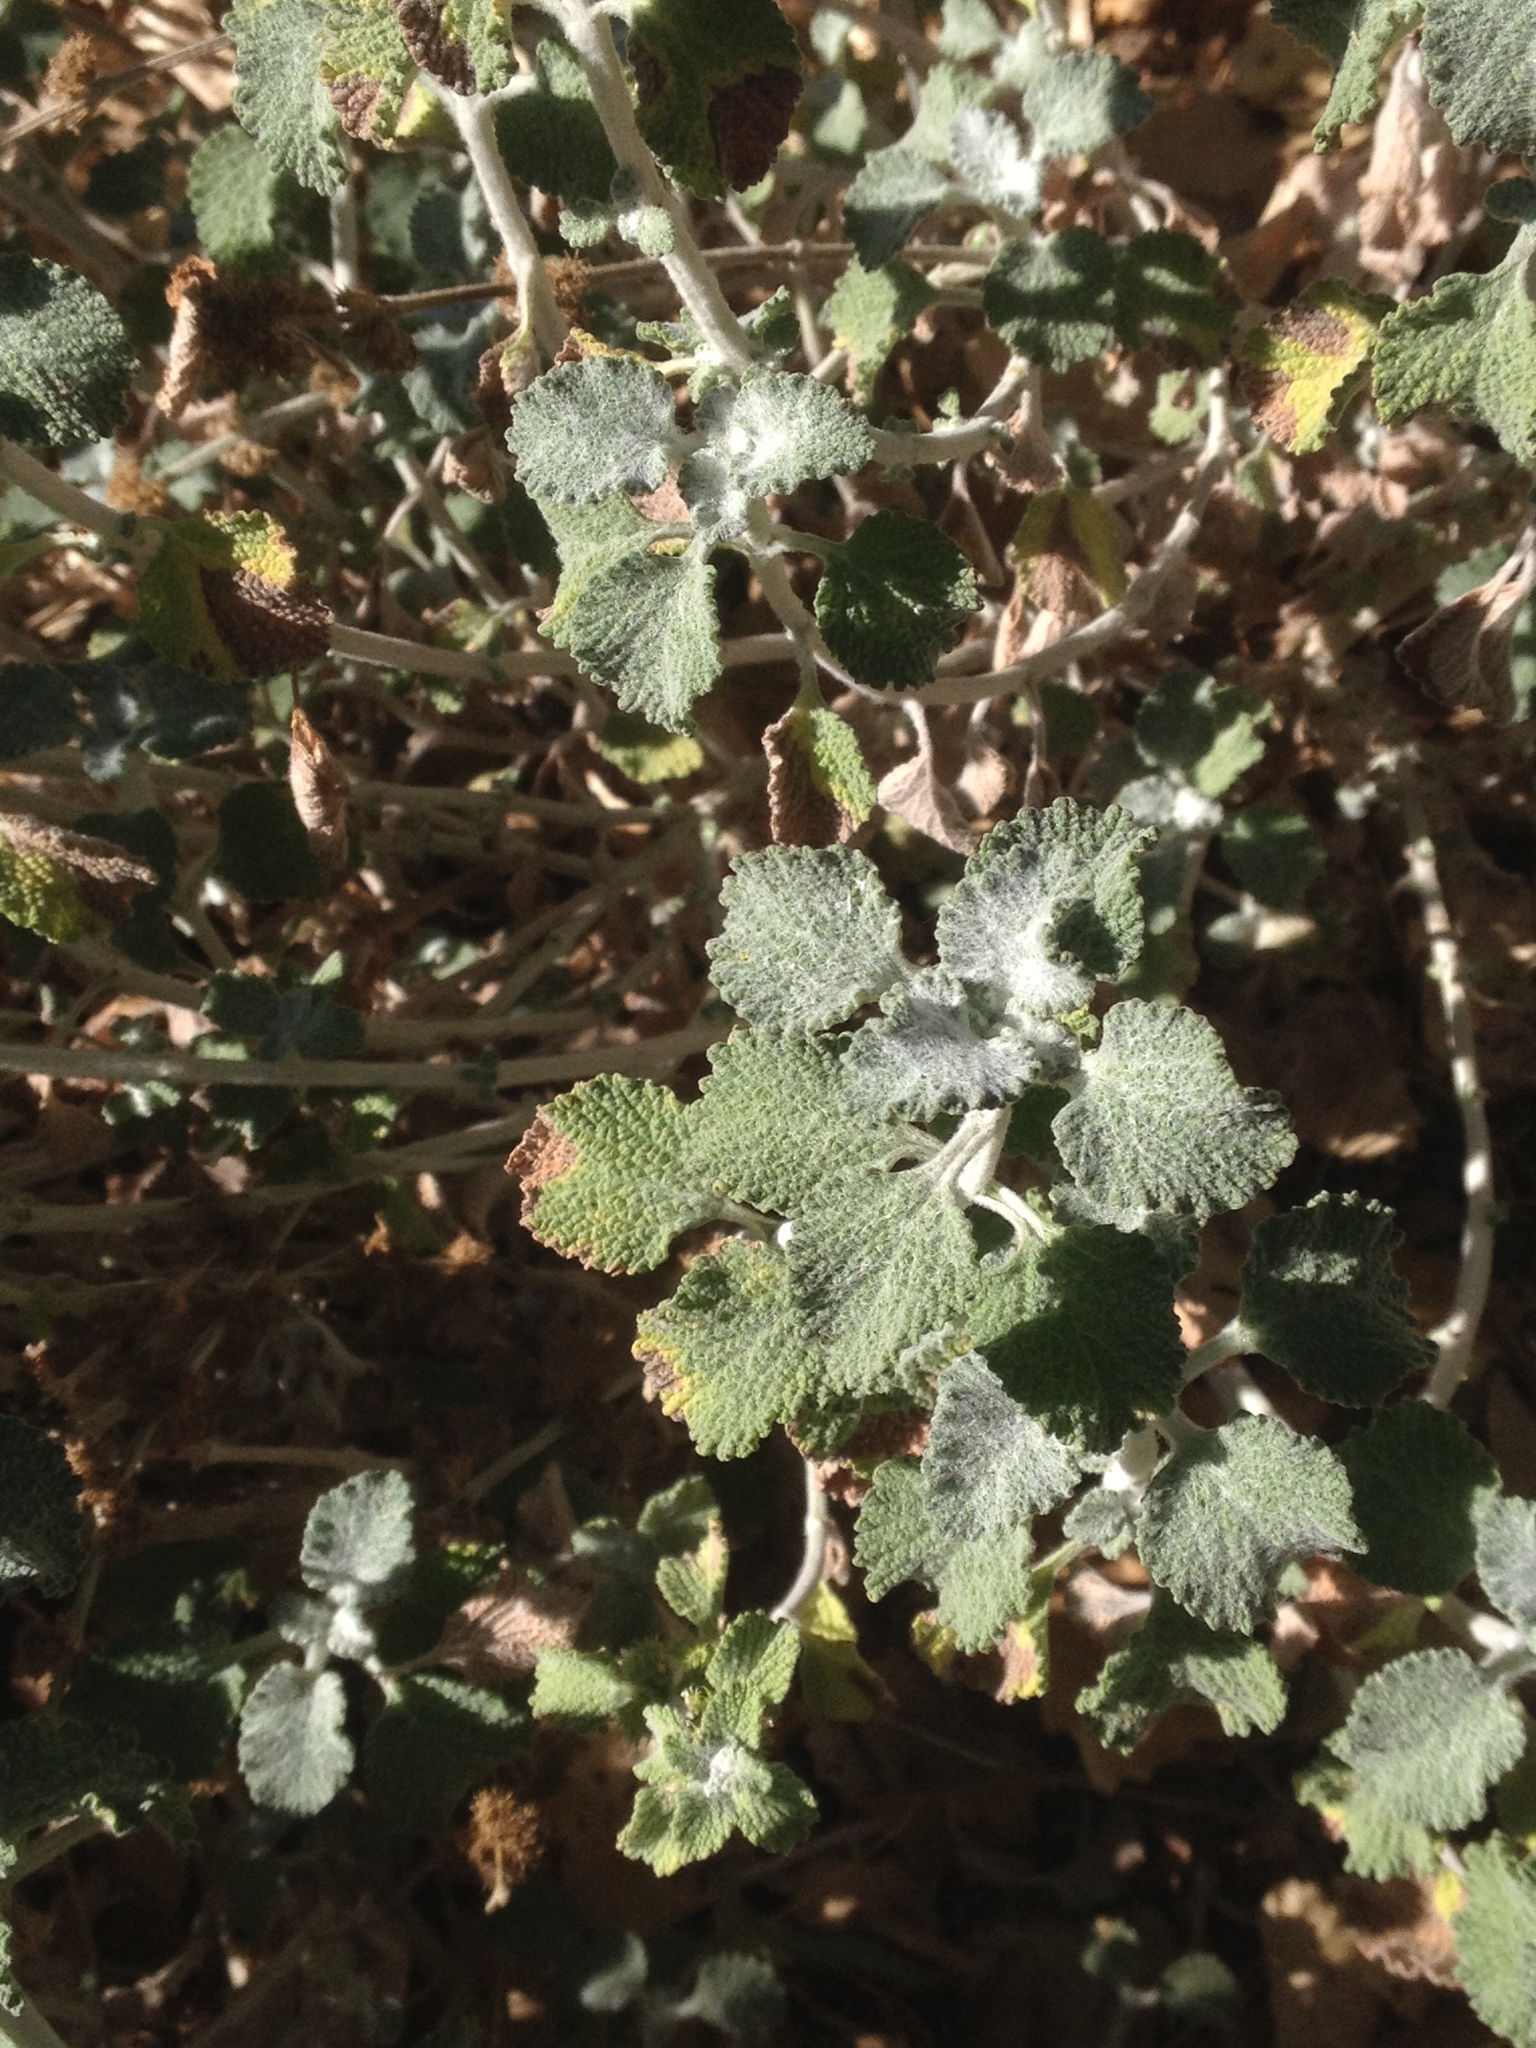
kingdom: Plantae
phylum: Tracheophyta
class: Magnoliopsida
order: Lamiales
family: Lamiaceae
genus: Marrubium
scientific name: Marrubium vulgare
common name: Horehound
